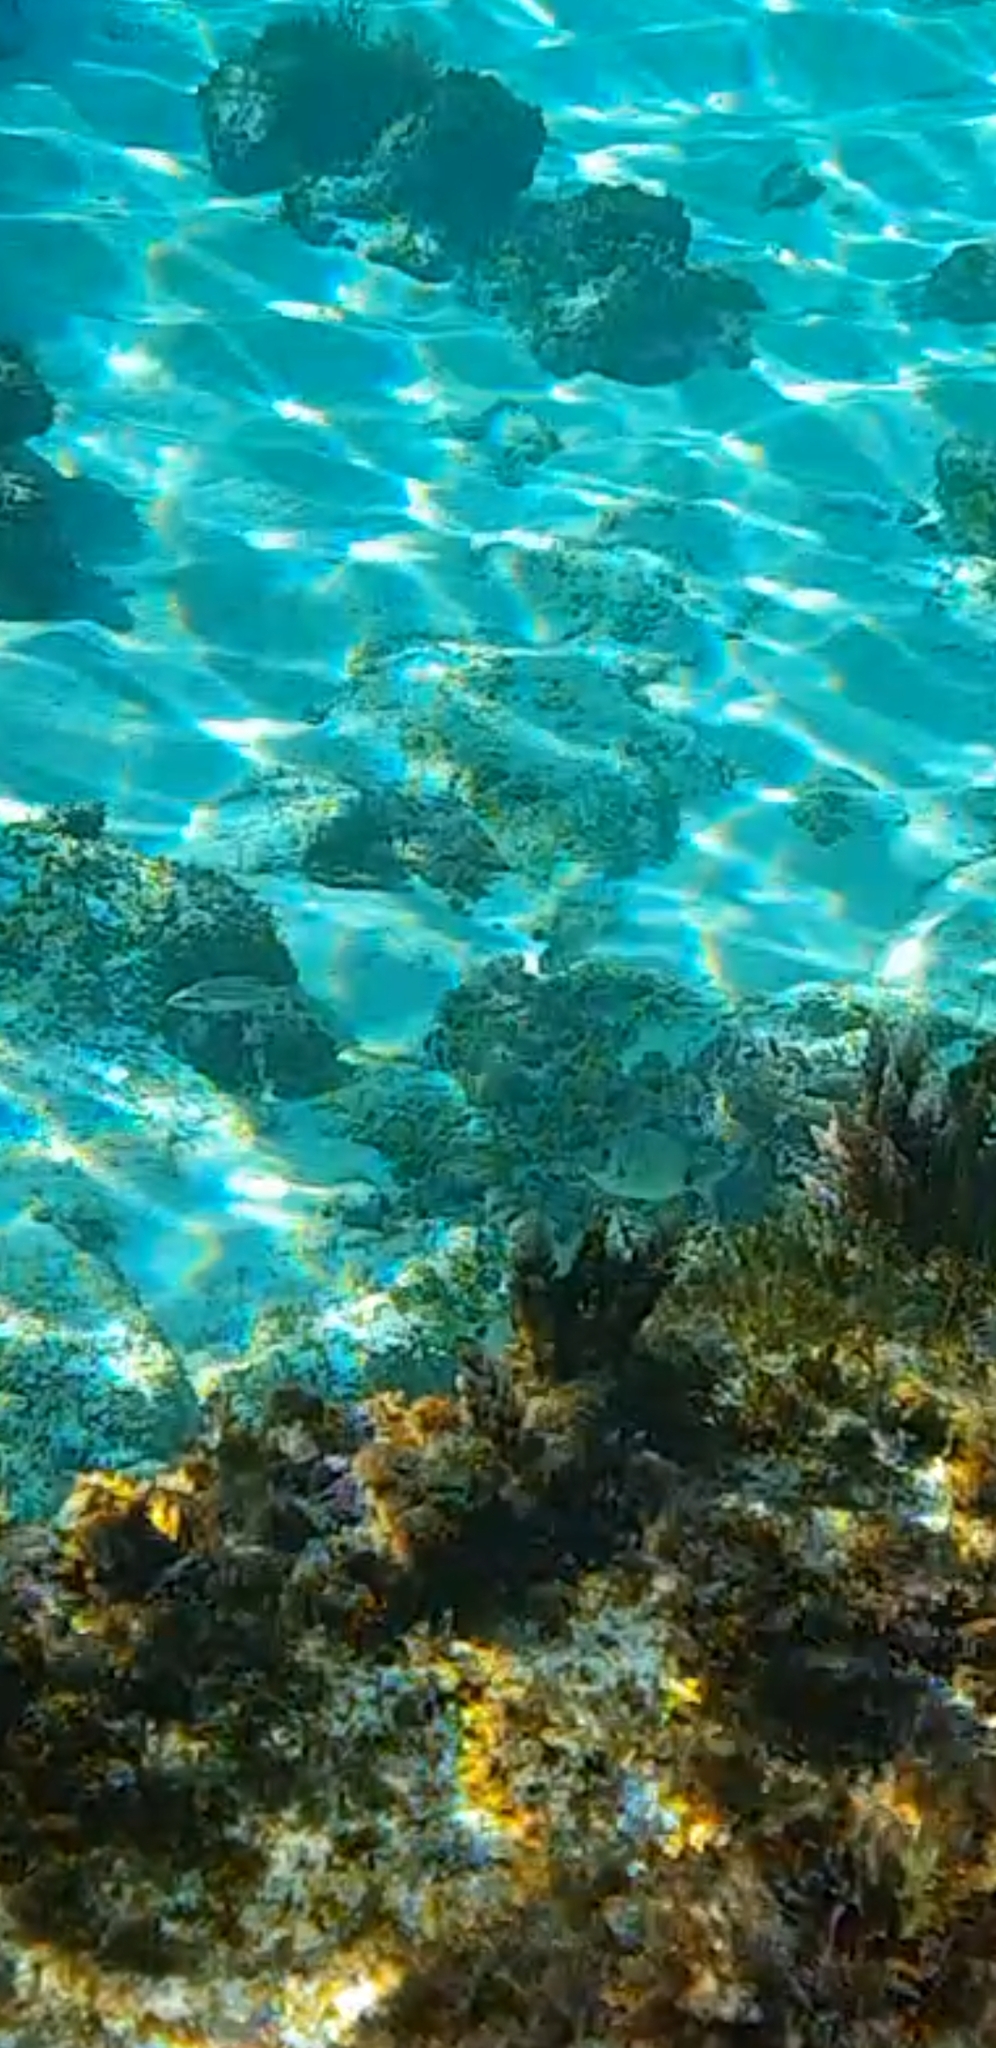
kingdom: Animalia
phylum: Chordata
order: Perciformes
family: Sparidae
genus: Diplodus
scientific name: Diplodus sargus
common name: White seabream
